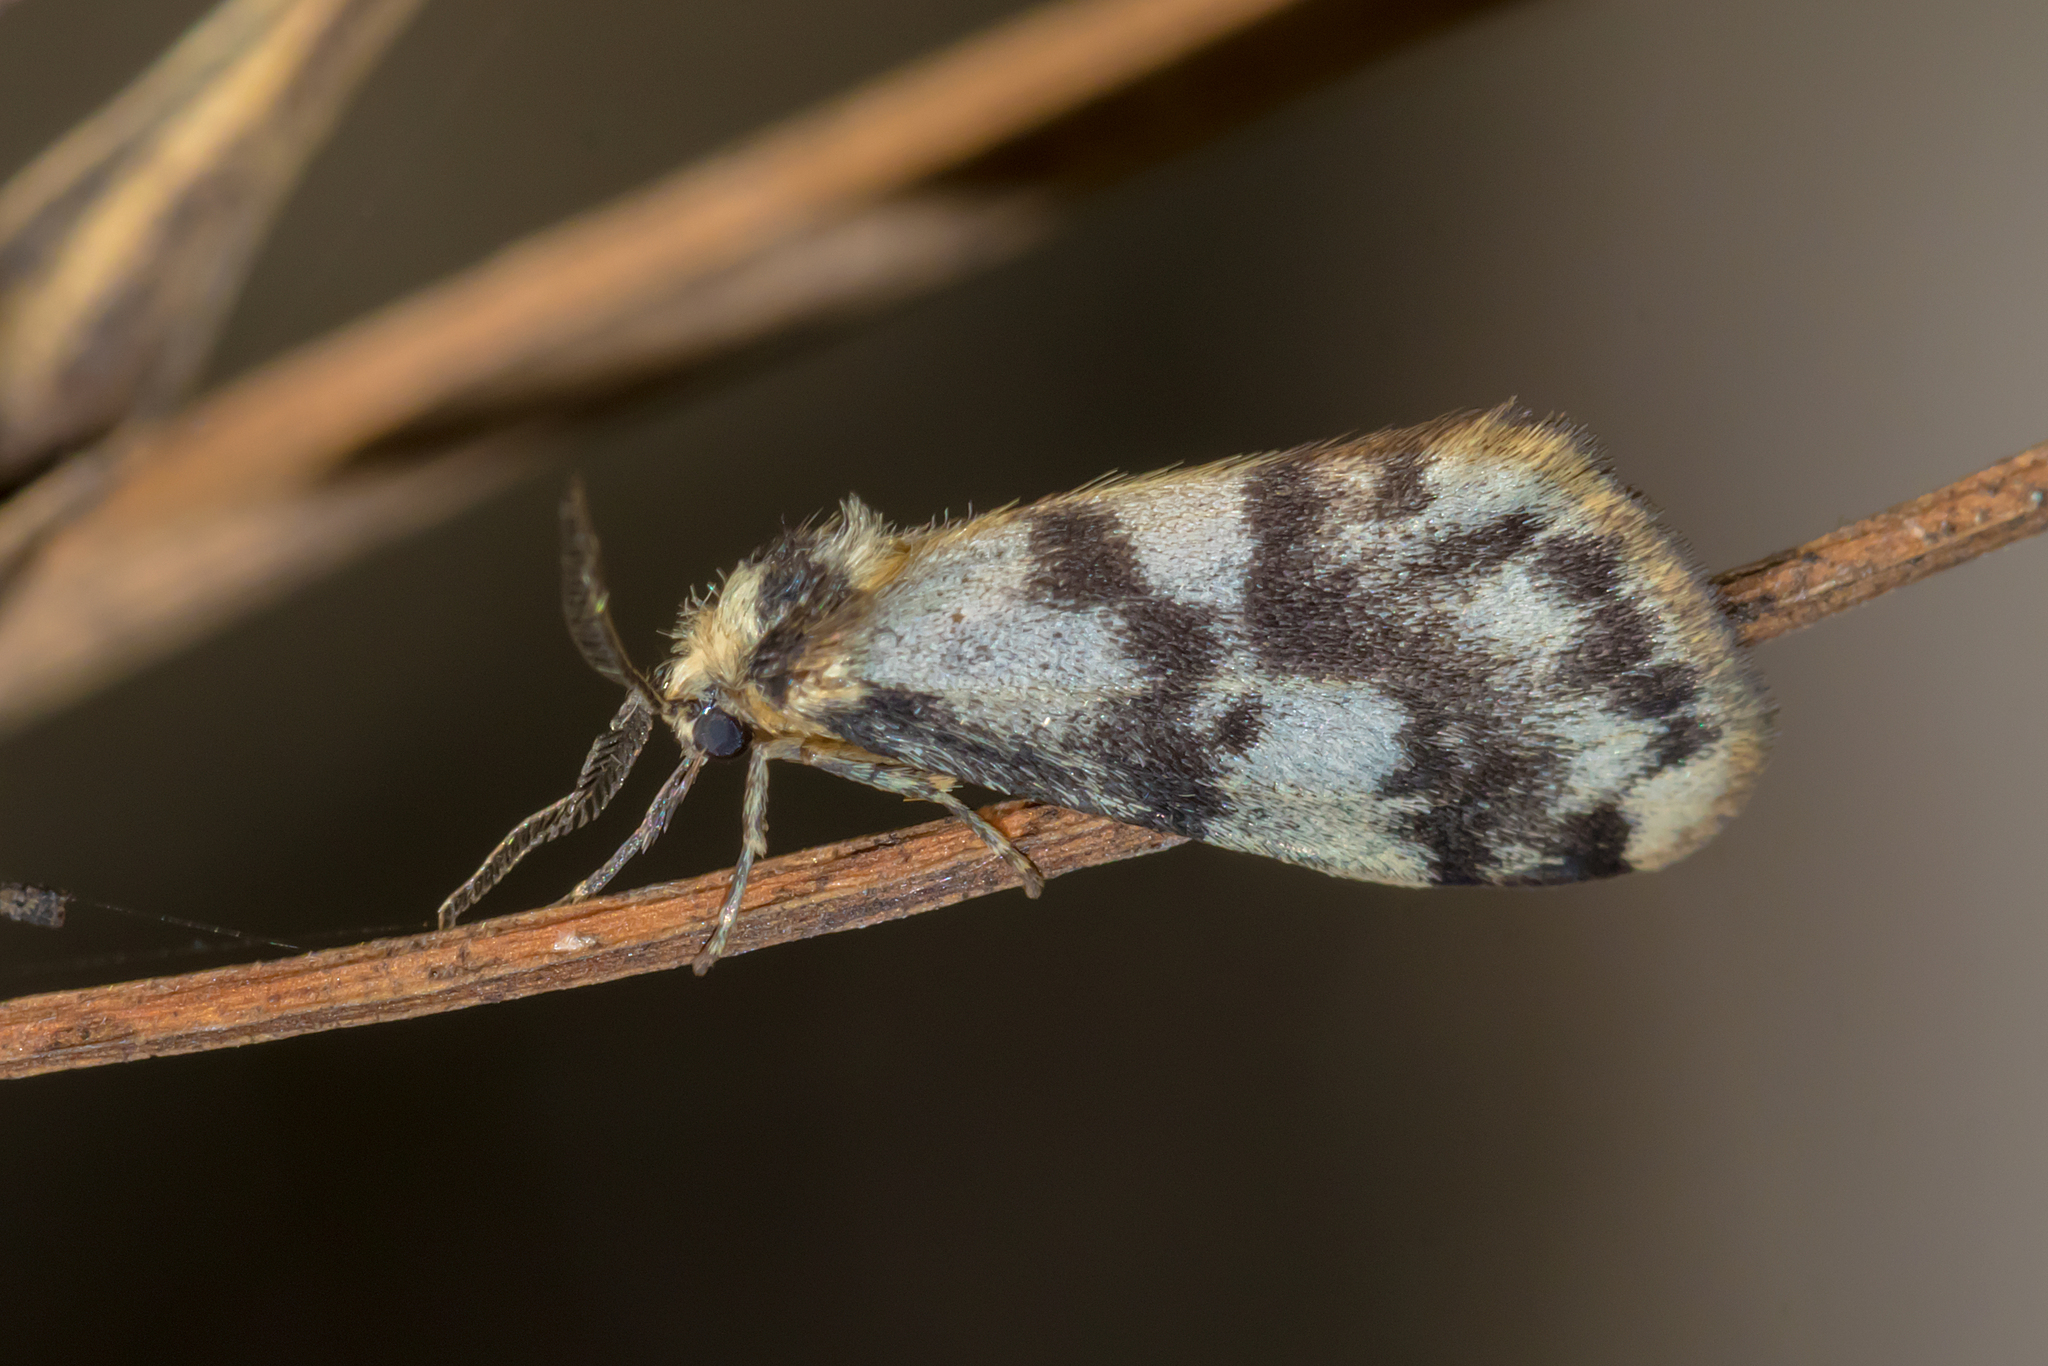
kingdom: Animalia
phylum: Arthropoda
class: Insecta
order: Lepidoptera
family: Erebidae
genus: Anestia
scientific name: Anestia
